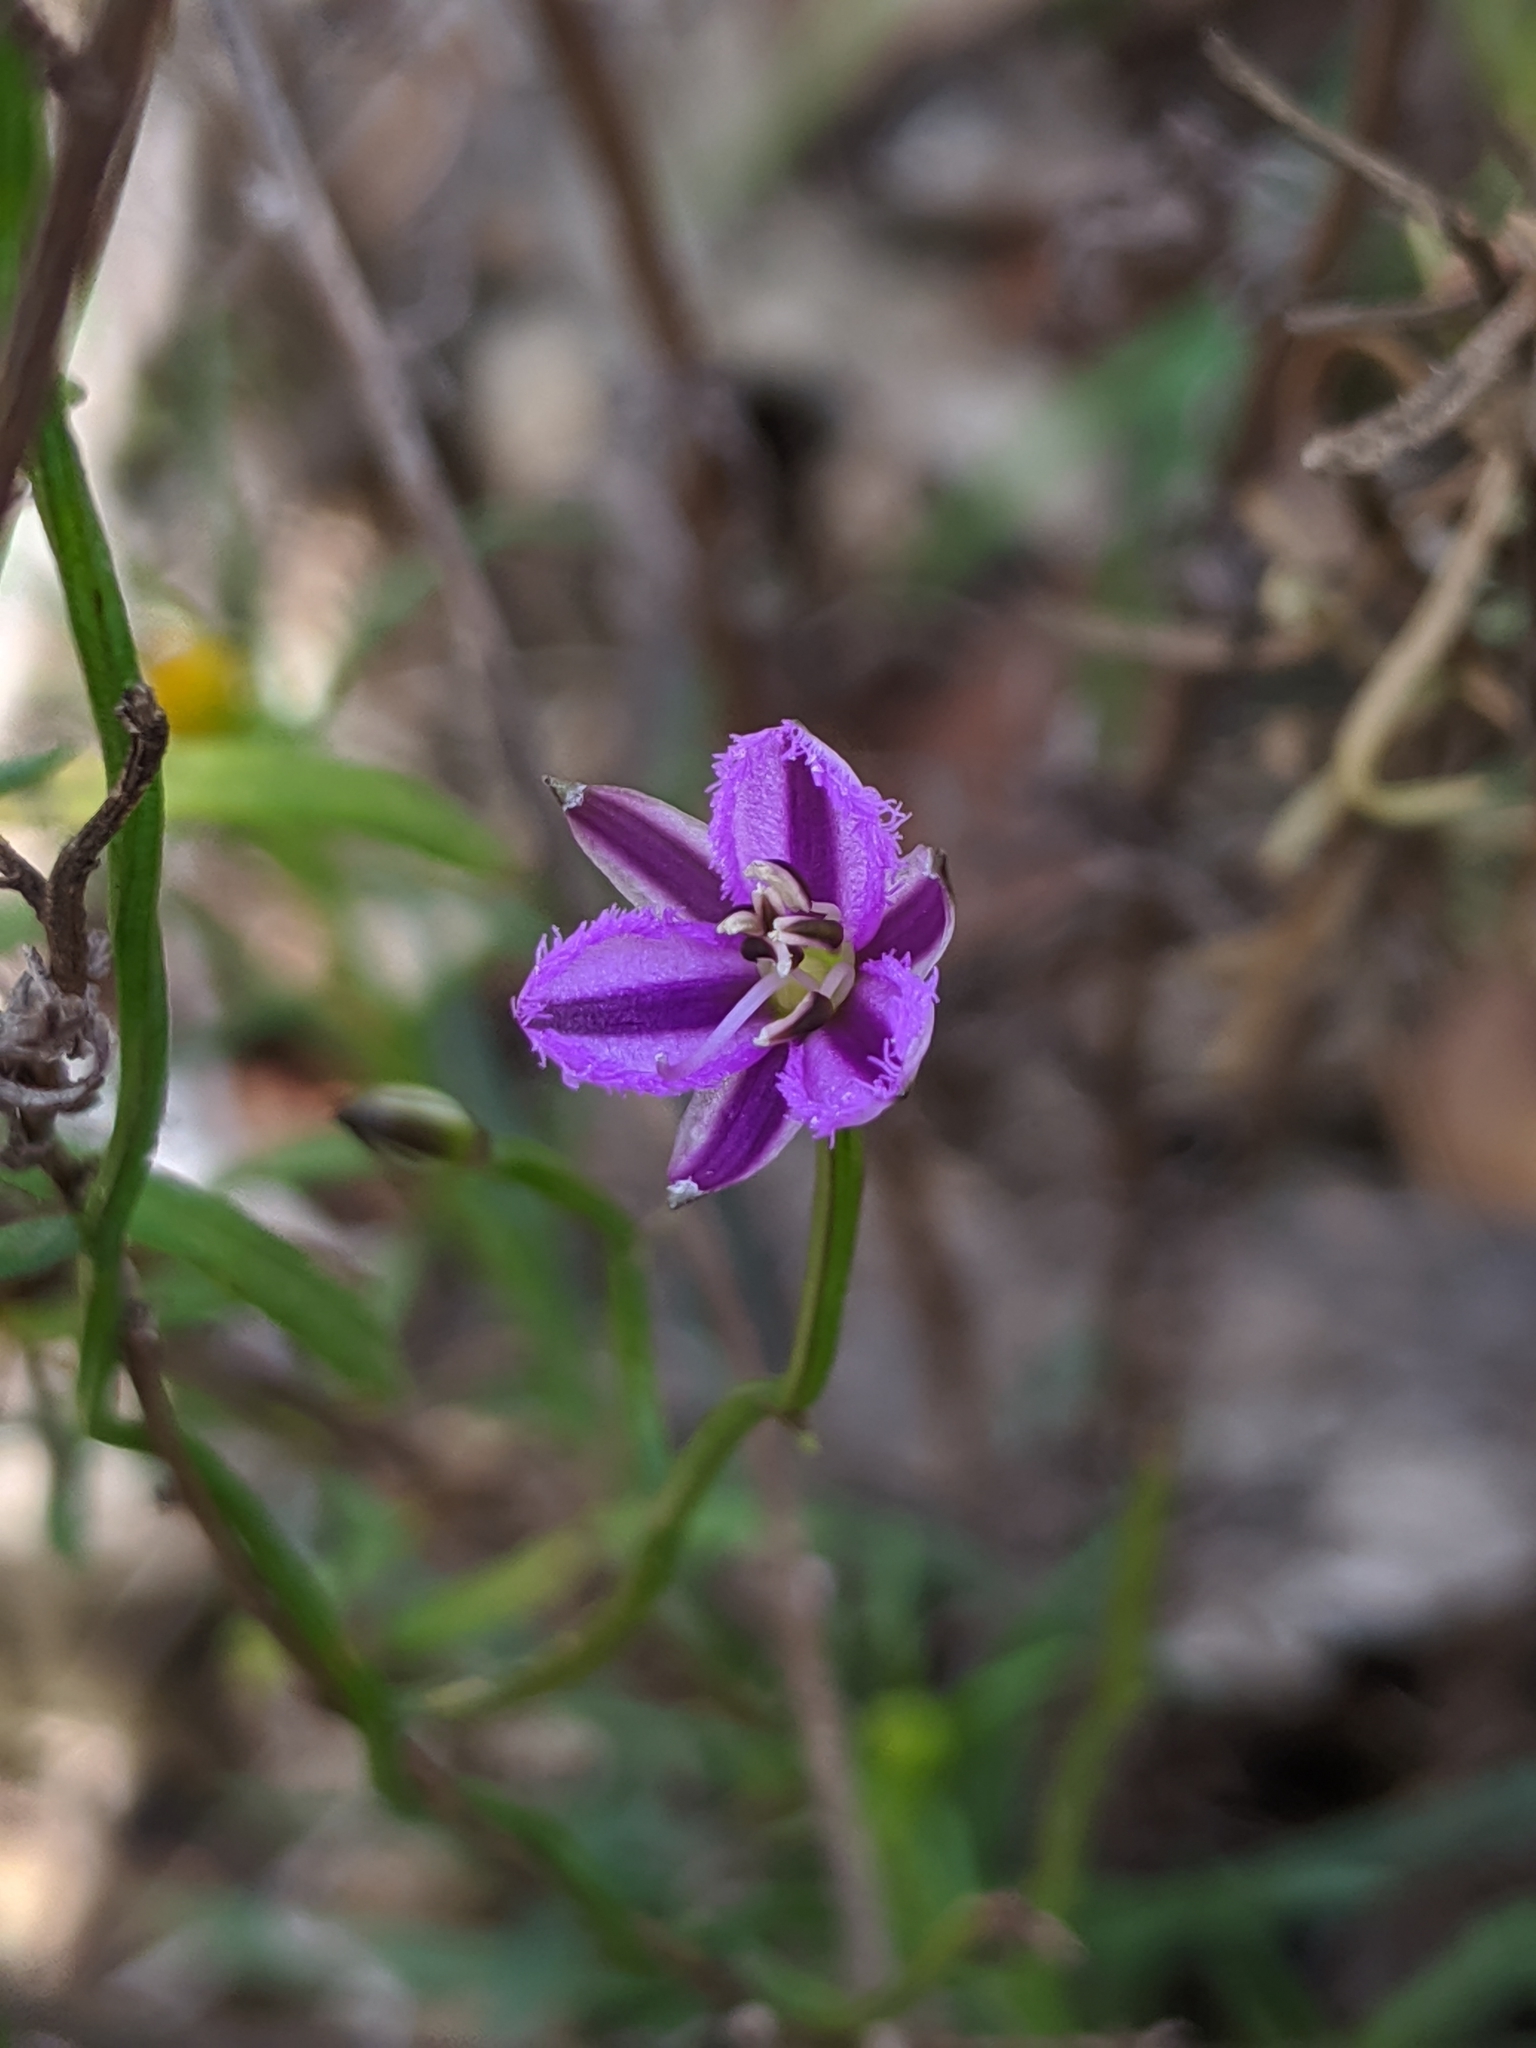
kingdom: Plantae
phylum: Tracheophyta
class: Liliopsida
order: Asparagales
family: Asparagaceae
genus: Thysanotus
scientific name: Thysanotus patersonii
